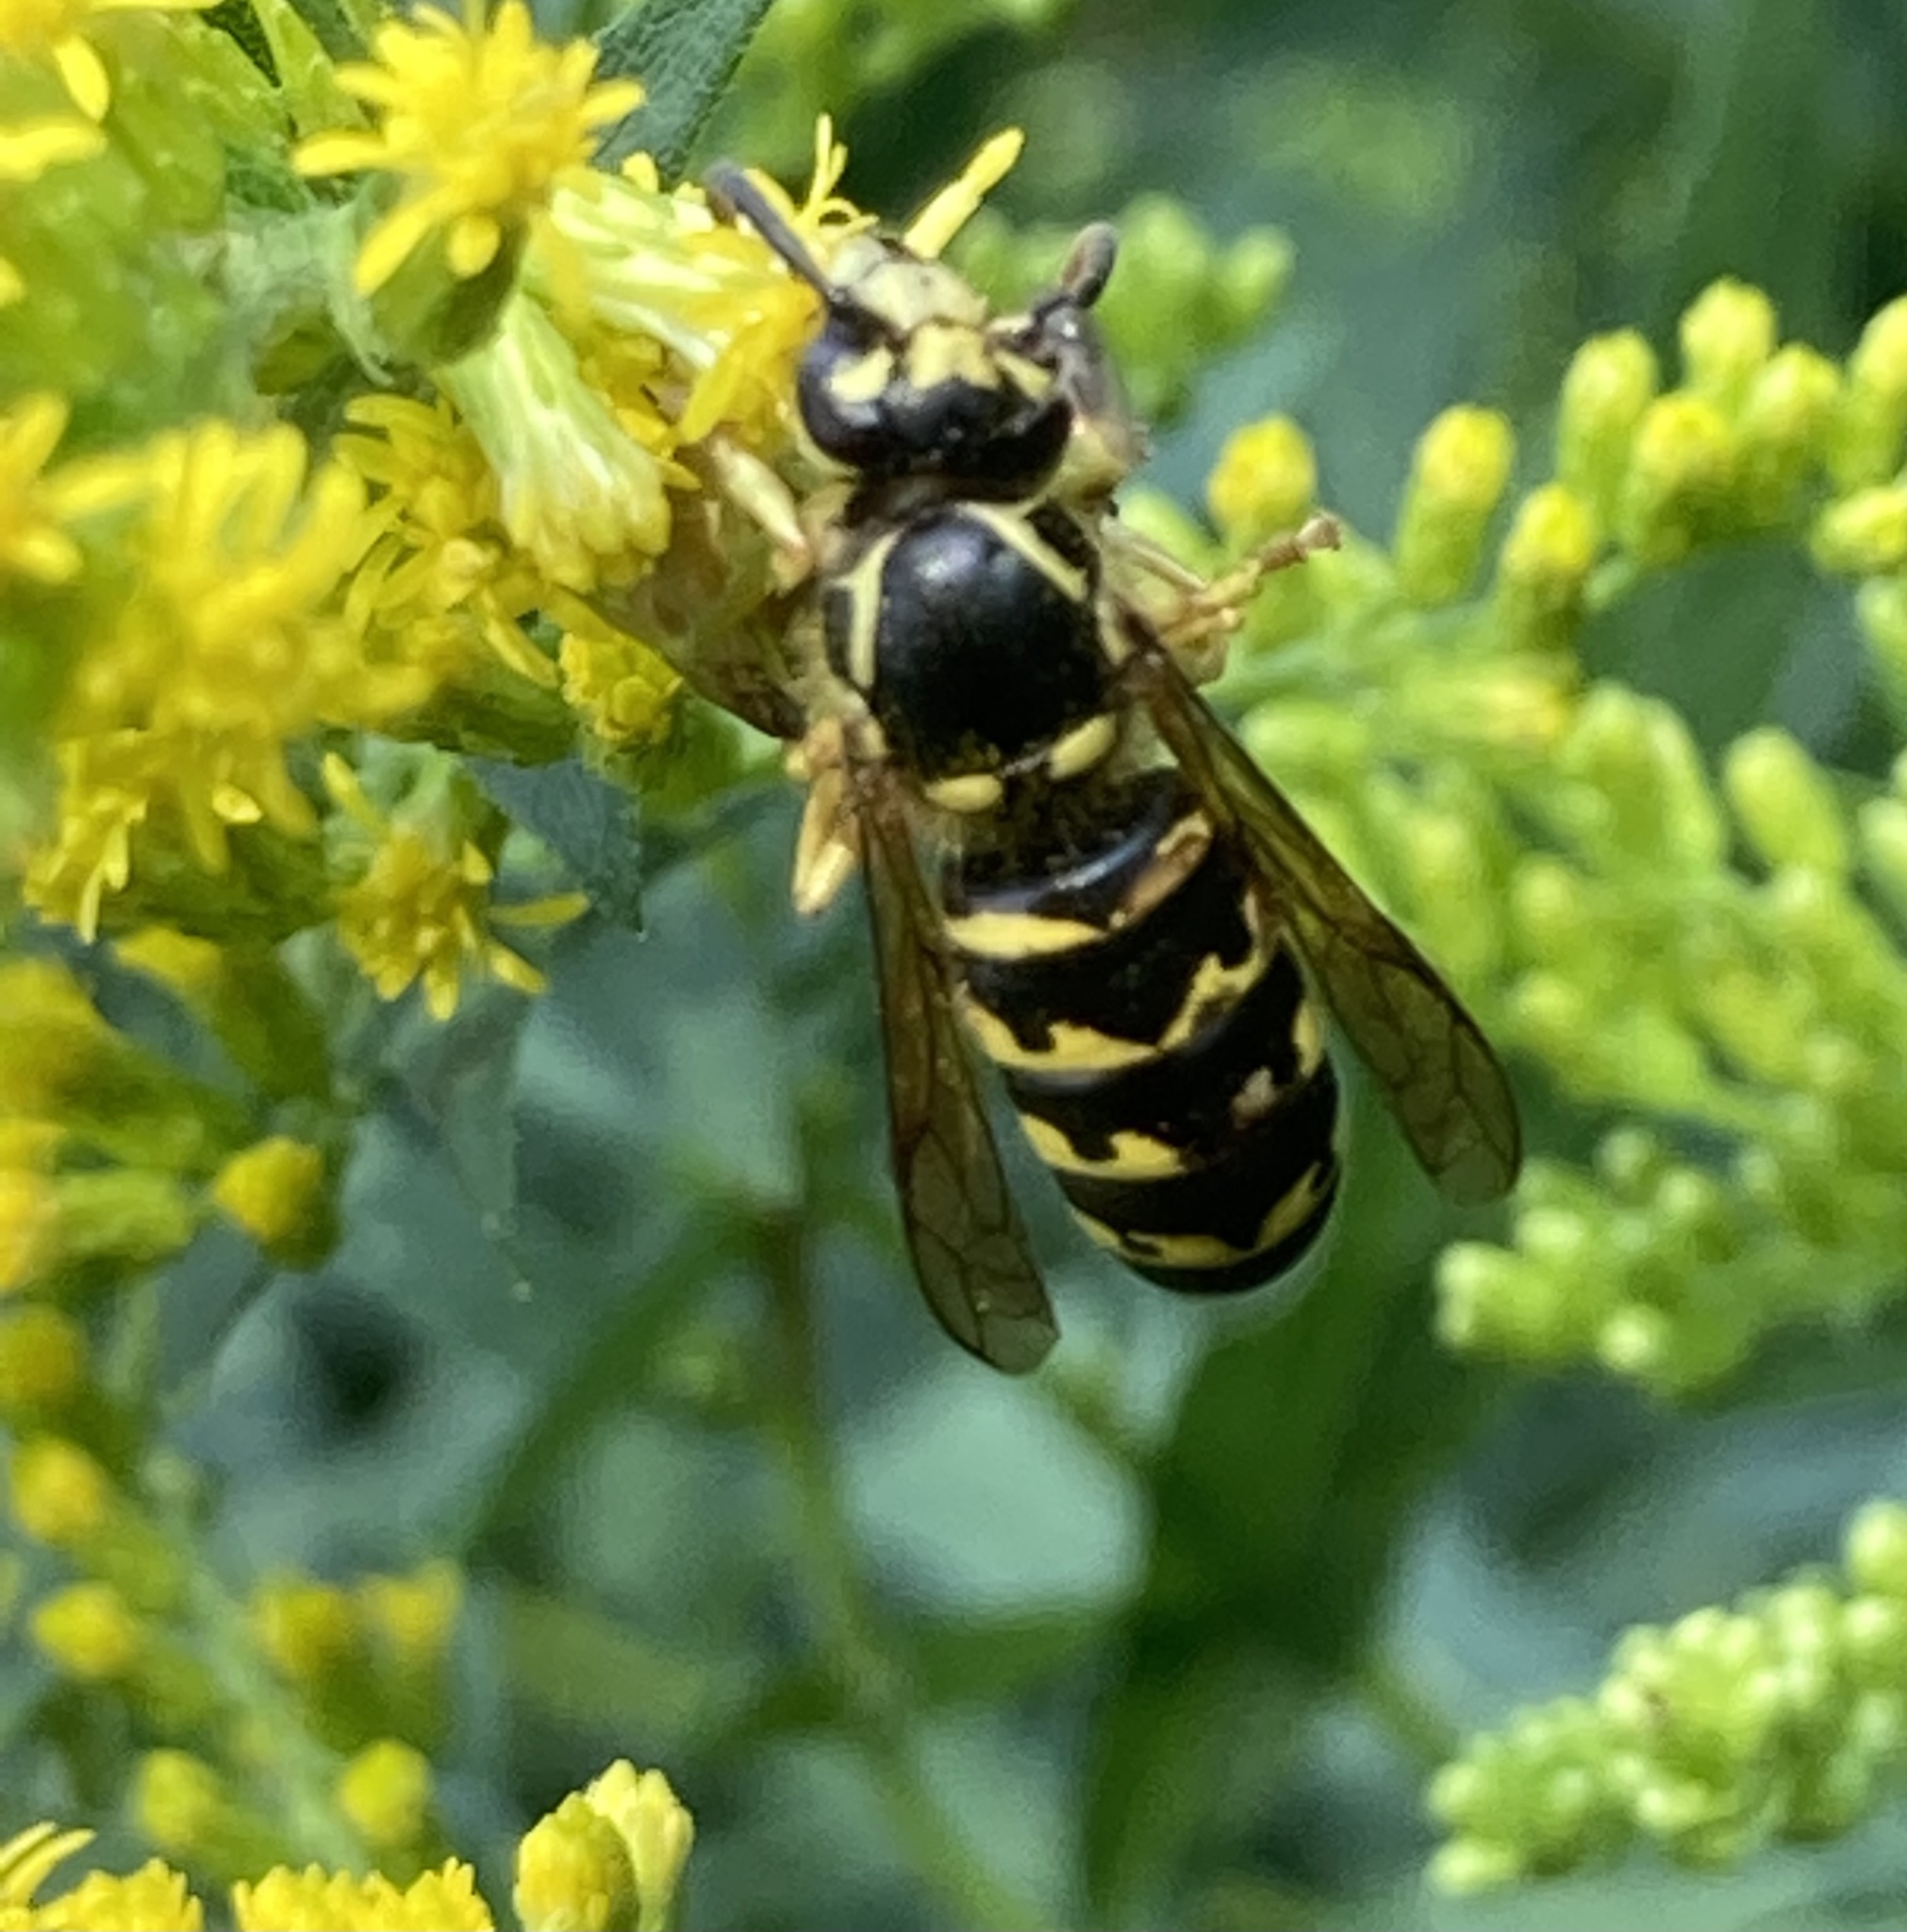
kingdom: Animalia
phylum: Arthropoda
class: Insecta
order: Hymenoptera
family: Vespidae
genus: Dolichovespula
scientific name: Dolichovespula arenaria
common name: Aerial yellowjacket
